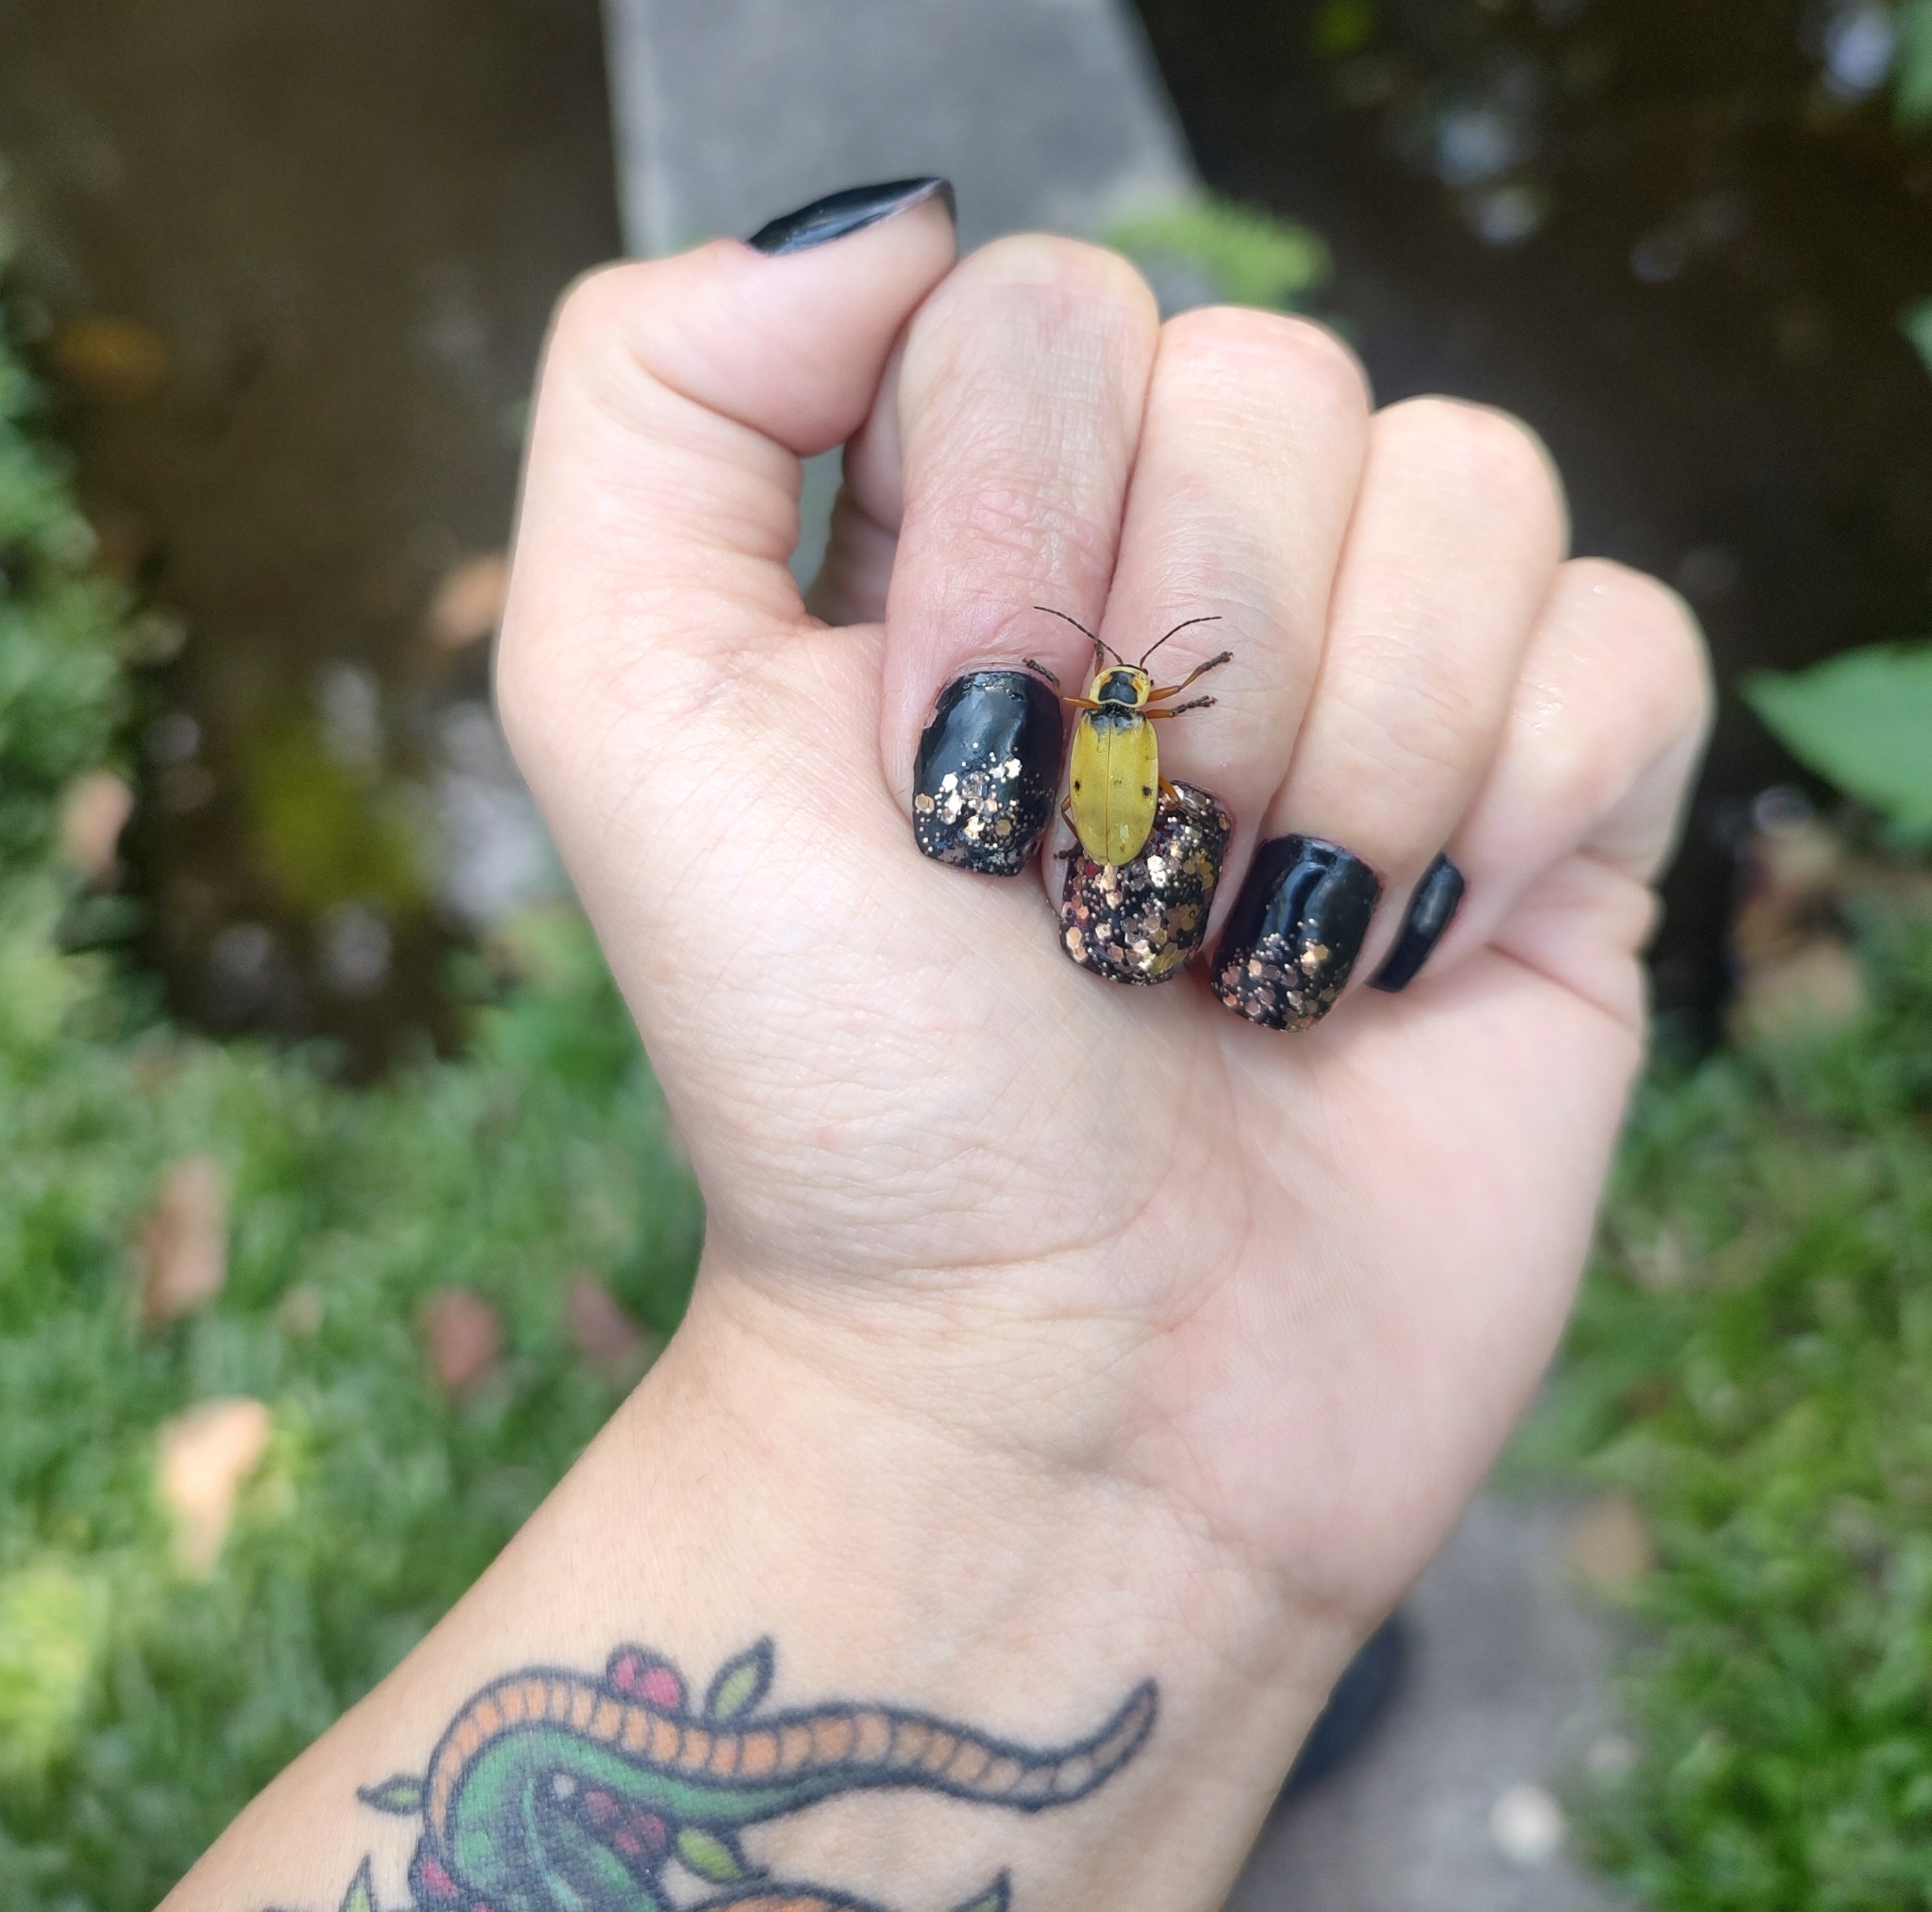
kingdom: Animalia
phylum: Arthropoda
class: Insecta
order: Coleoptera
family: Cantharidae
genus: Chauliognathus
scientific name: Chauliognathus
